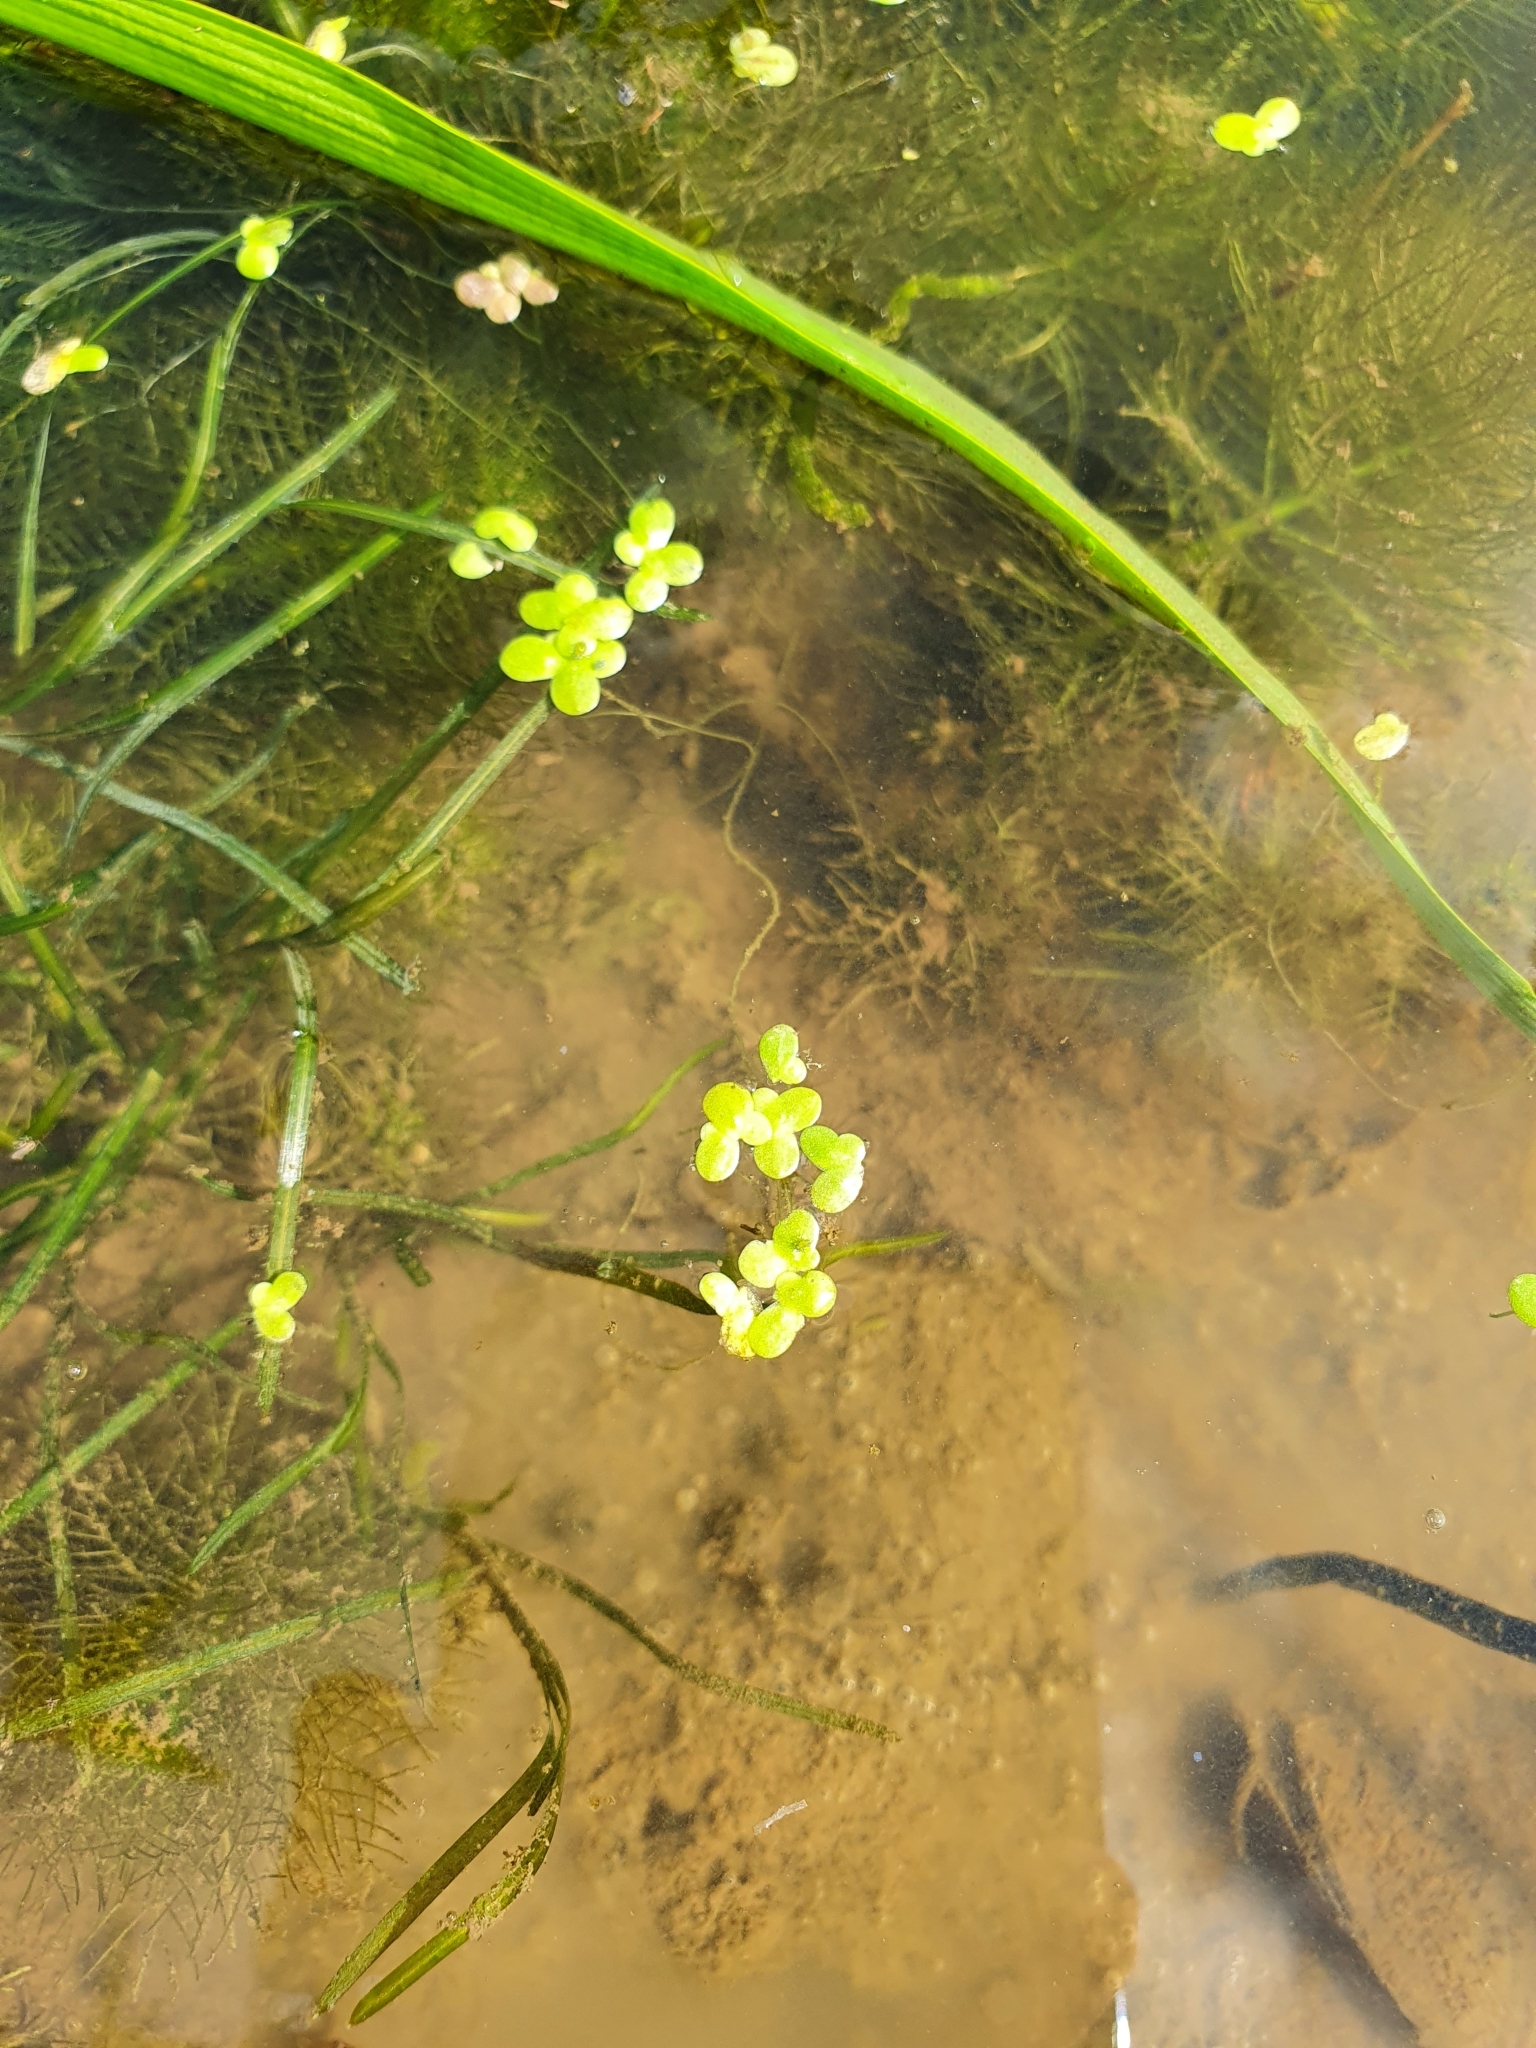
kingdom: Plantae
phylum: Tracheophyta
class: Liliopsida
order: Alismatales
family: Araceae
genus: Lemna
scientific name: Lemna minor
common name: Common duckweed
